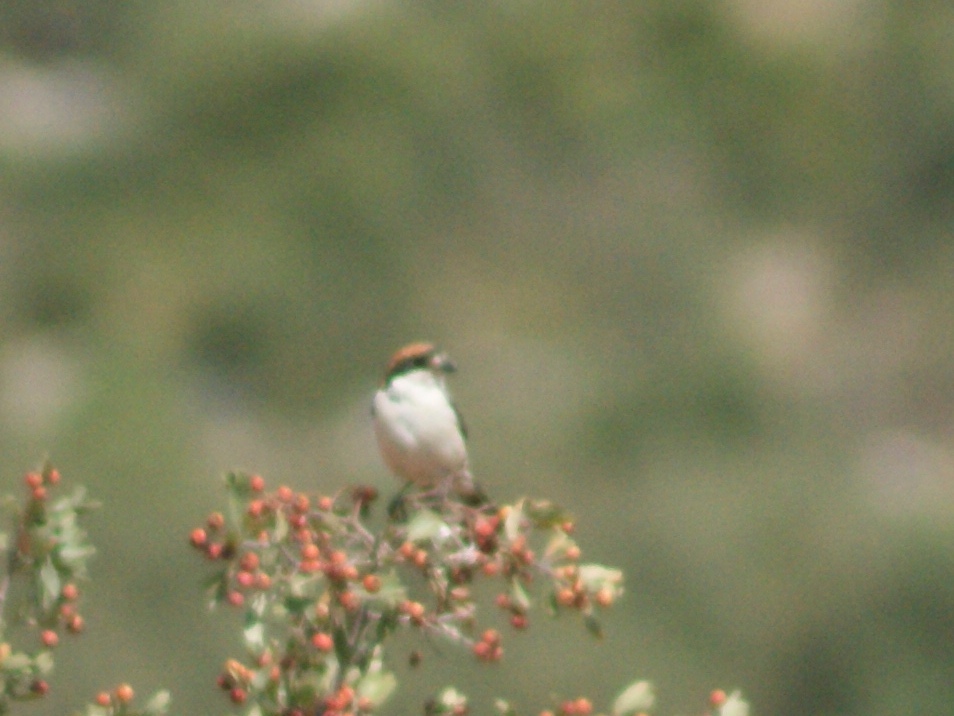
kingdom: Animalia
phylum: Chordata
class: Aves
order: Passeriformes
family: Laniidae
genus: Lanius
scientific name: Lanius senator
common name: Woodchat shrike
